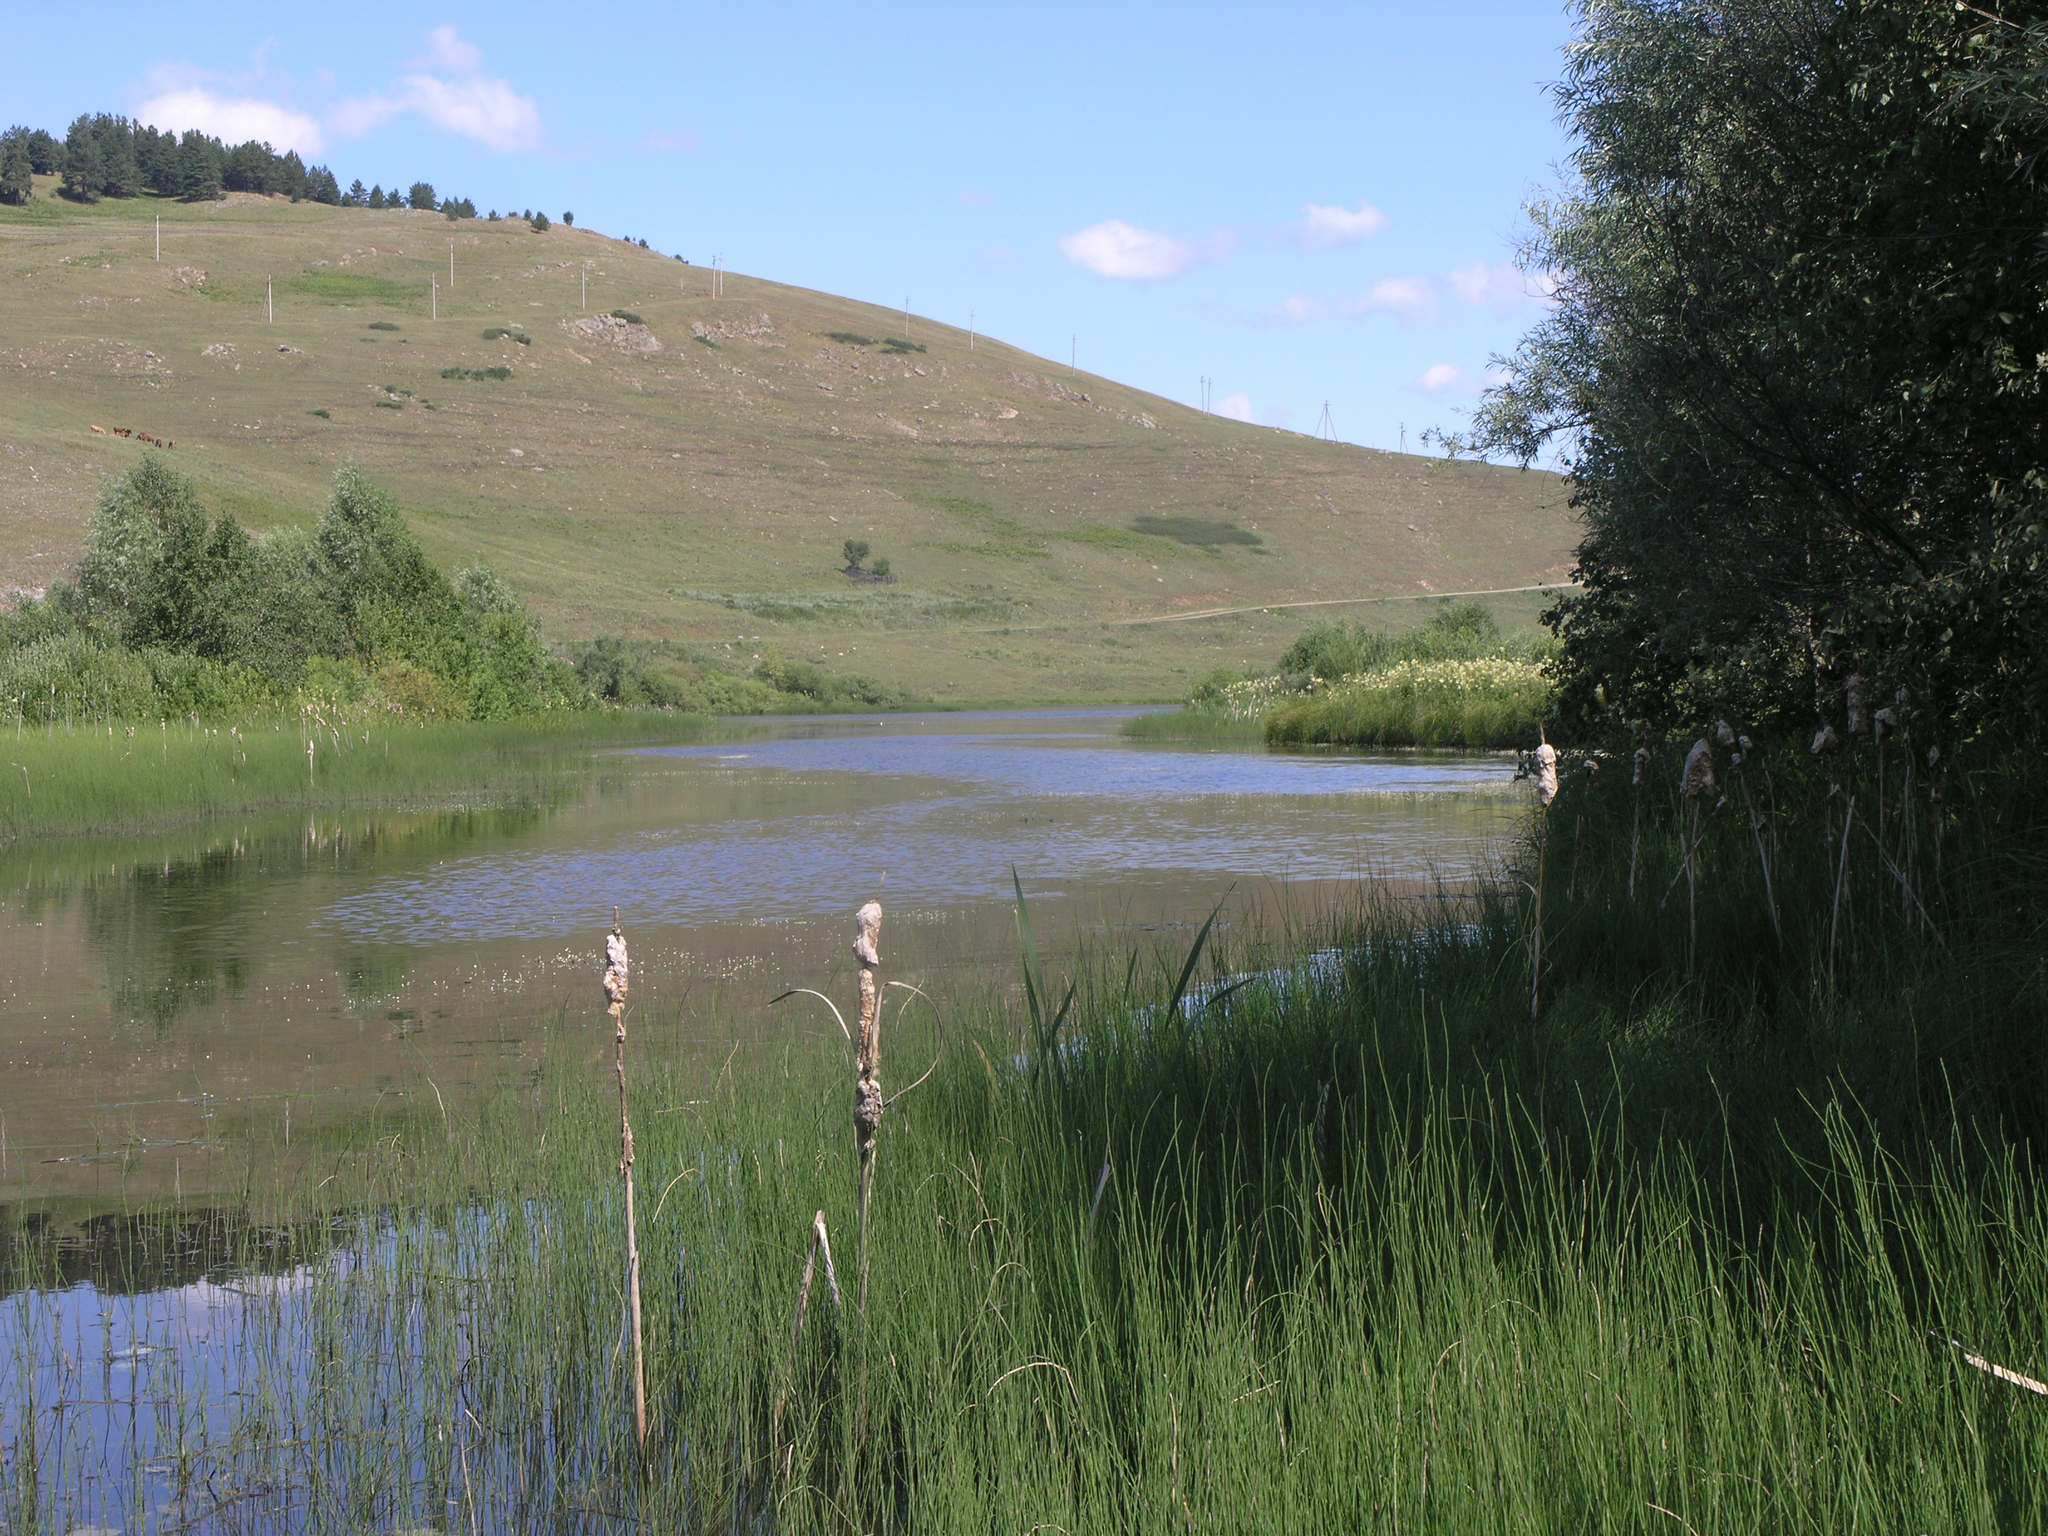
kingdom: Plantae
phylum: Tracheophyta
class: Polypodiopsida
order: Equisetales
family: Equisetaceae
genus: Equisetum
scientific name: Equisetum fluviatile
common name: Water horsetail
